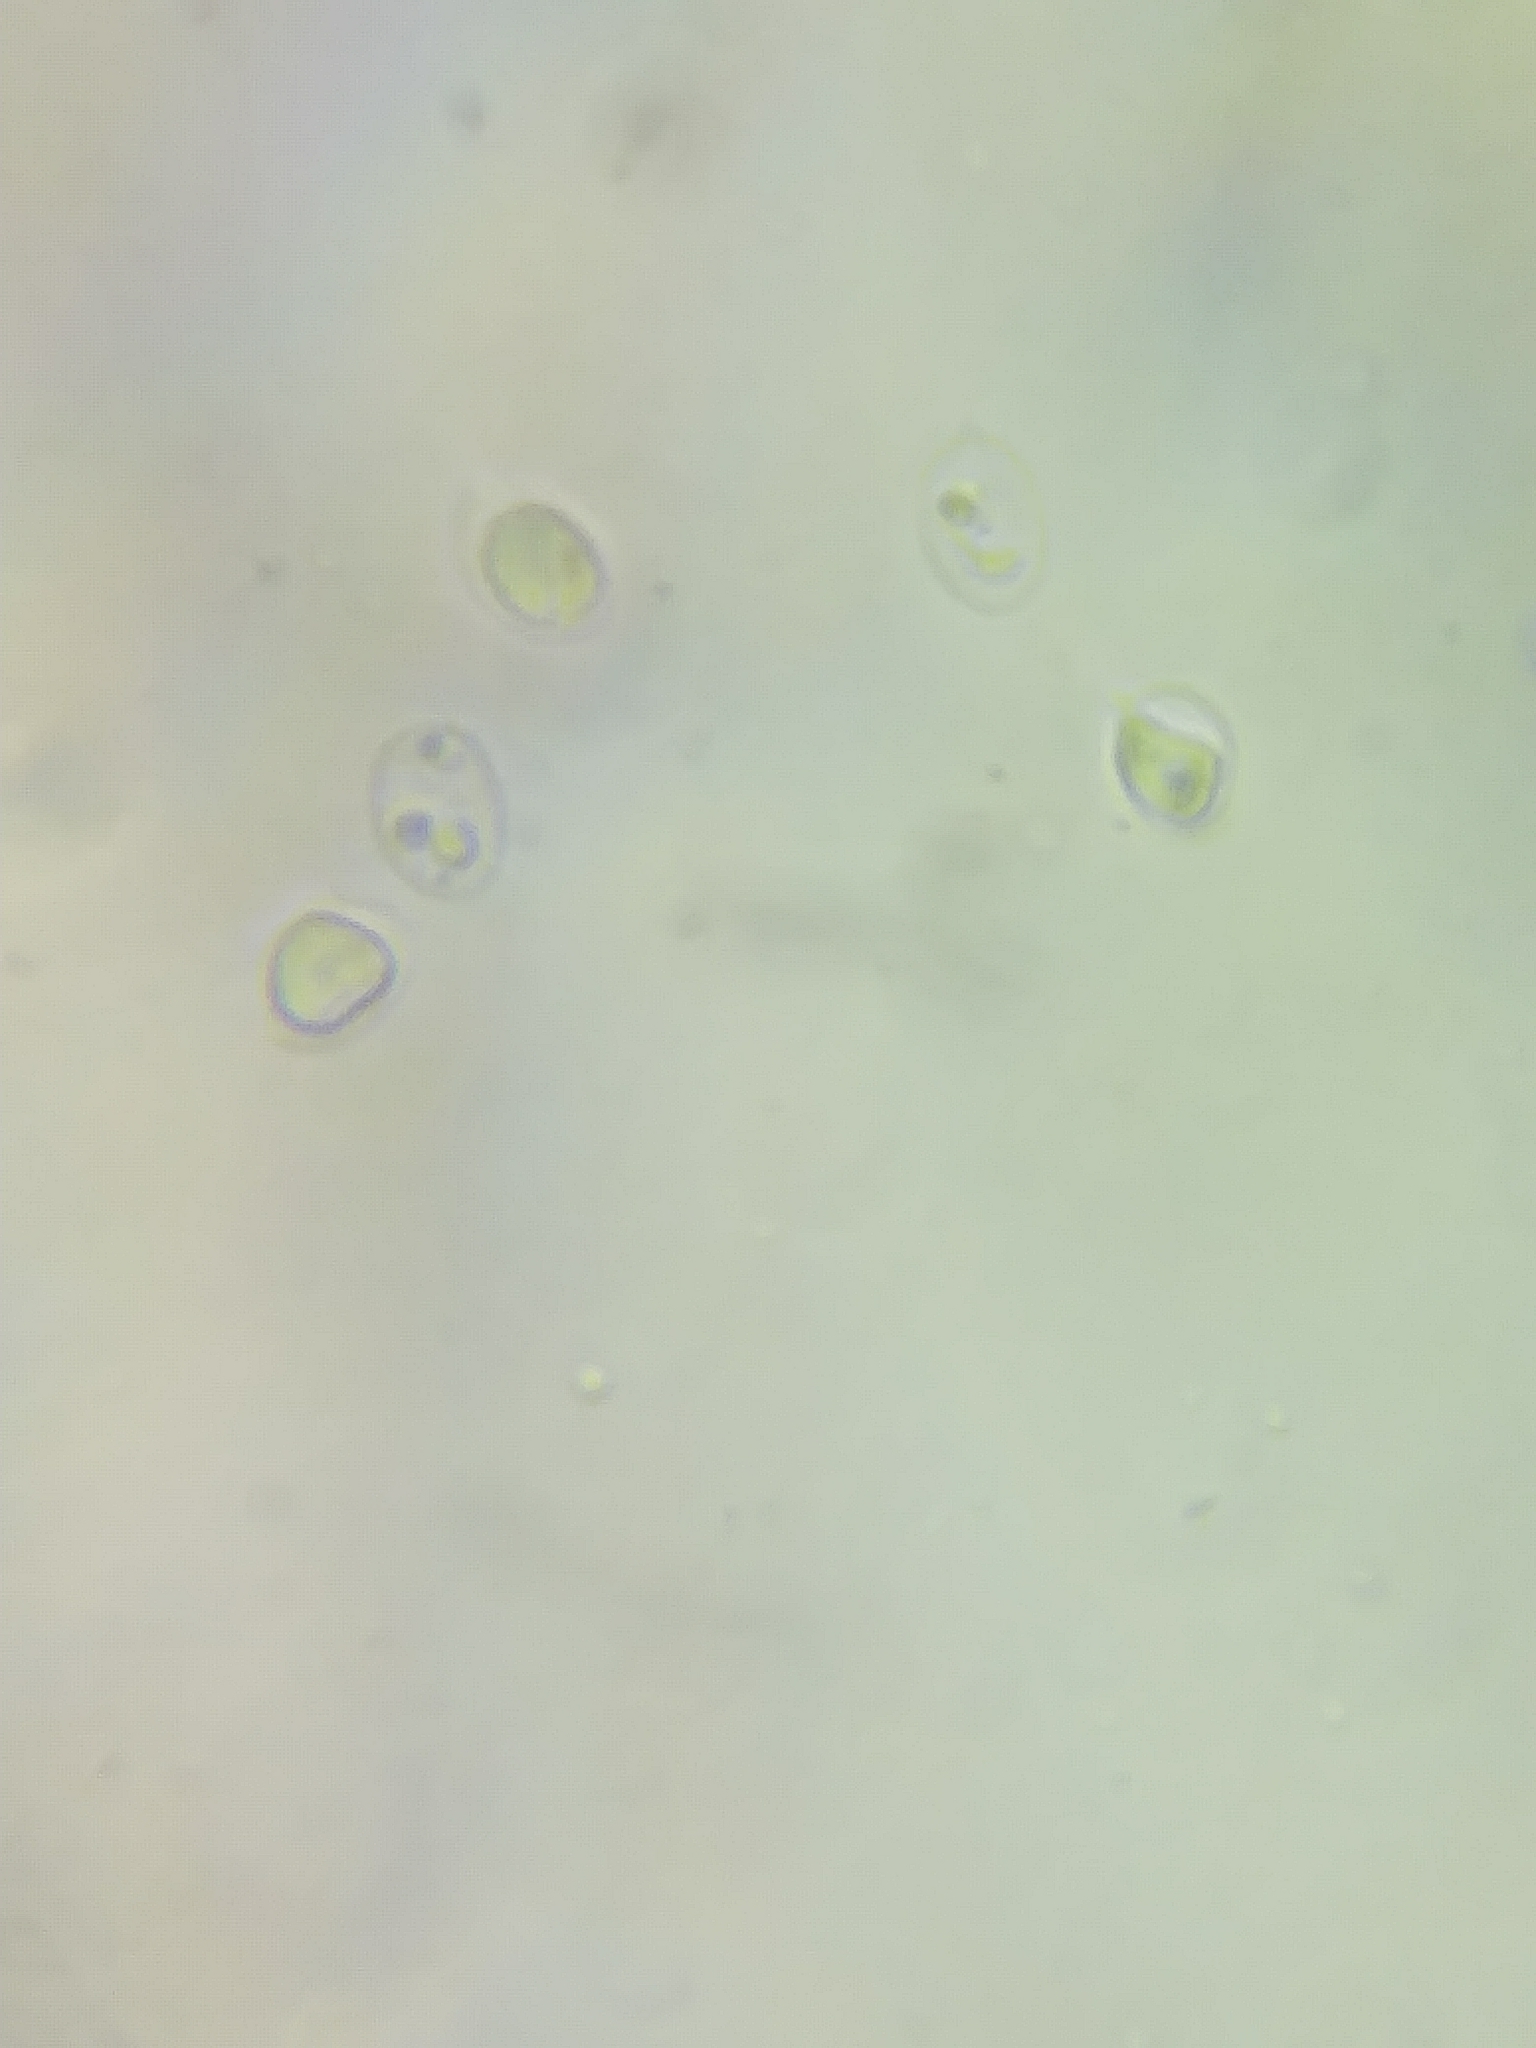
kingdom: Fungi
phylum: Basidiomycota
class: Agaricomycetes
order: Agaricales
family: Tricholomataceae
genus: Tricholoma
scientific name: Tricholoma magnivelare
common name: American matsutake
